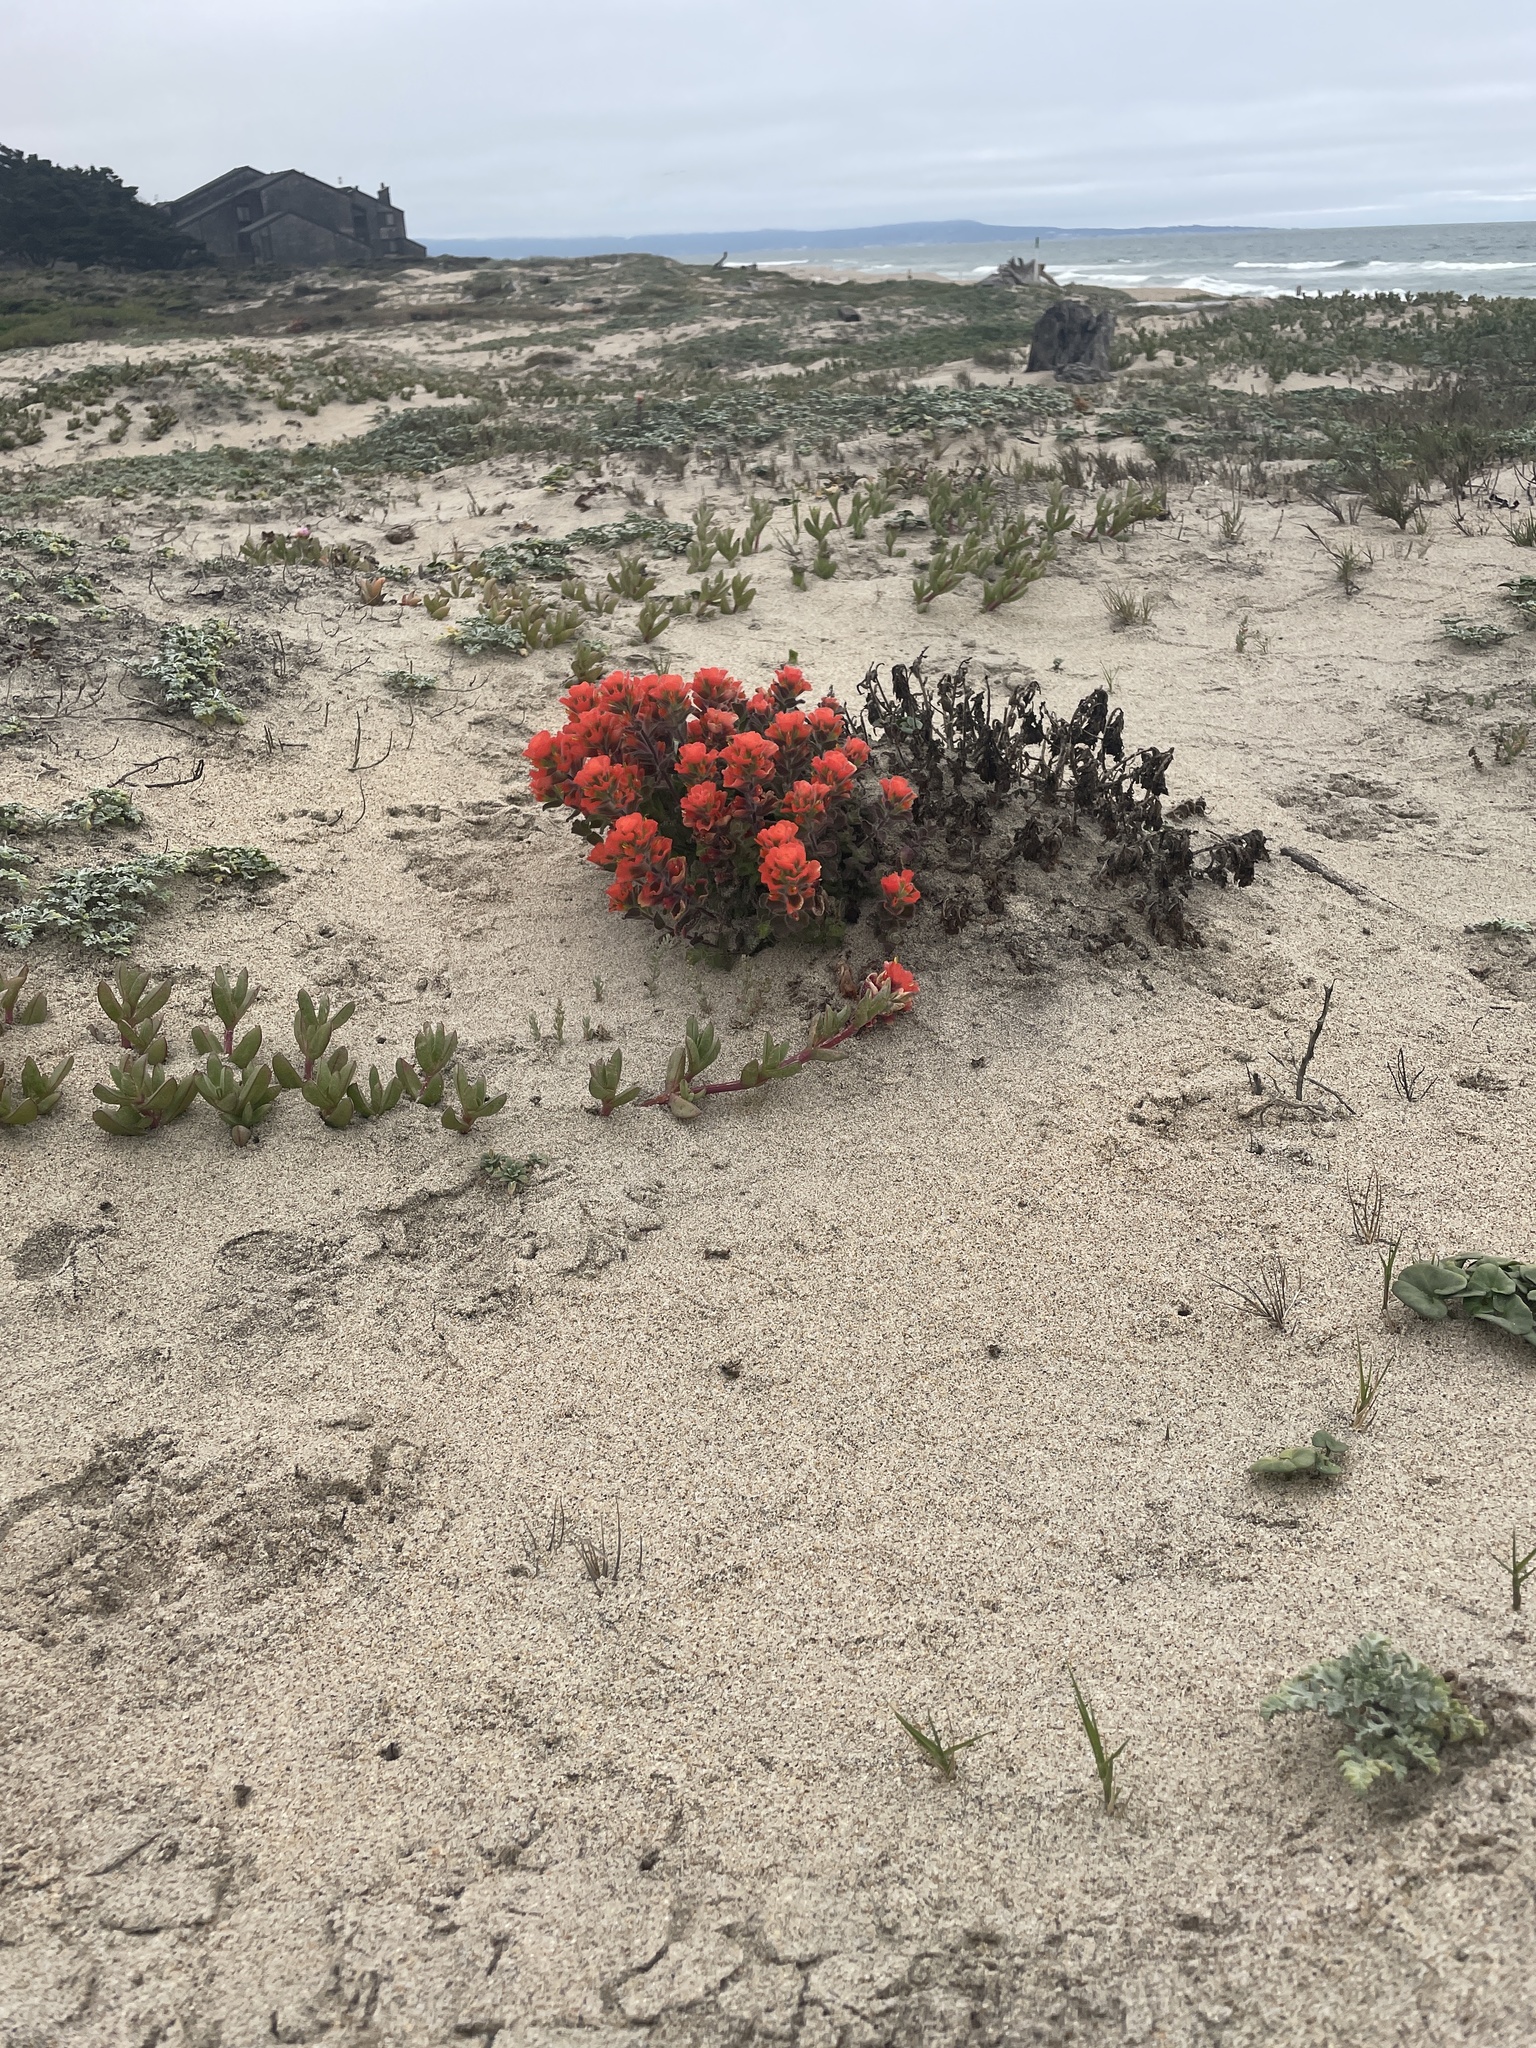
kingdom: Plantae
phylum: Tracheophyta
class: Magnoliopsida
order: Lamiales
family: Orobanchaceae
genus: Castilleja
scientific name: Castilleja latifolia
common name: Monterey indian paintbrush
